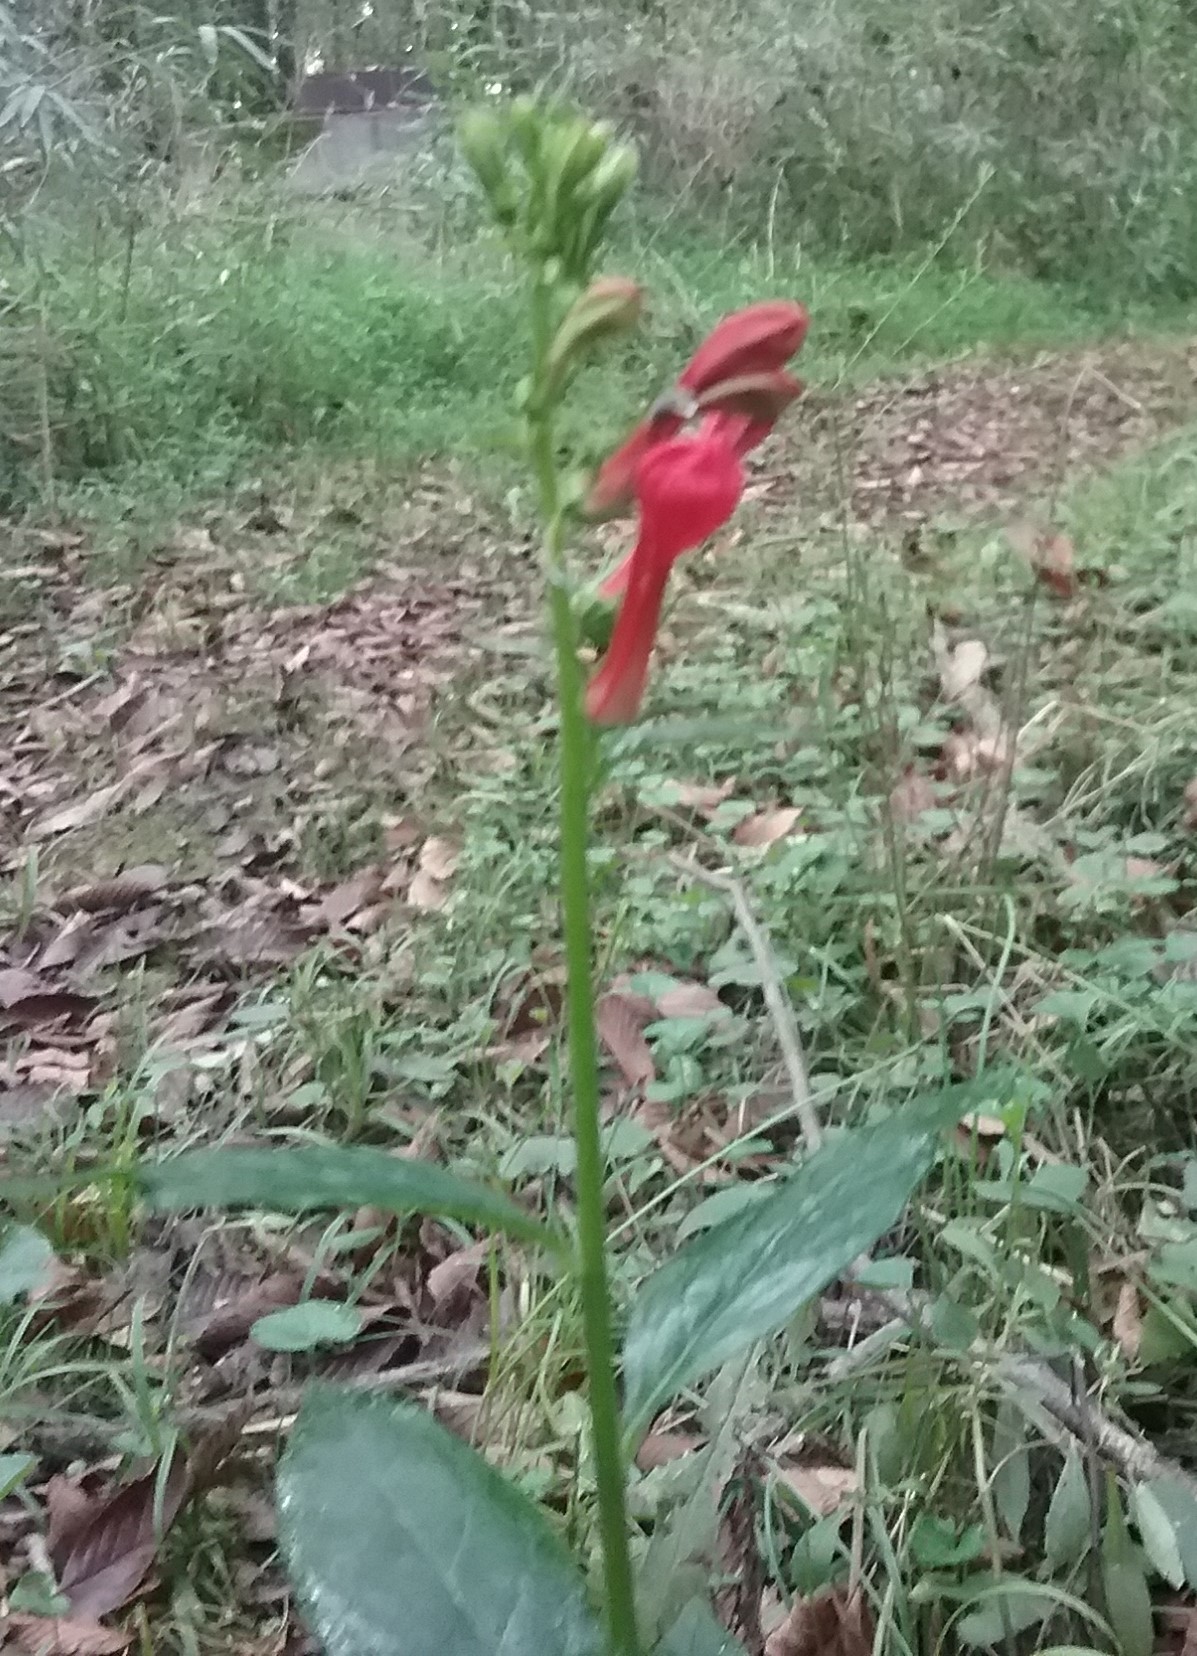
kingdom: Plantae
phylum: Tracheophyta
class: Magnoliopsida
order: Asterales
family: Campanulaceae
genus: Lobelia
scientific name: Lobelia cardinalis
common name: Cardinal flower
